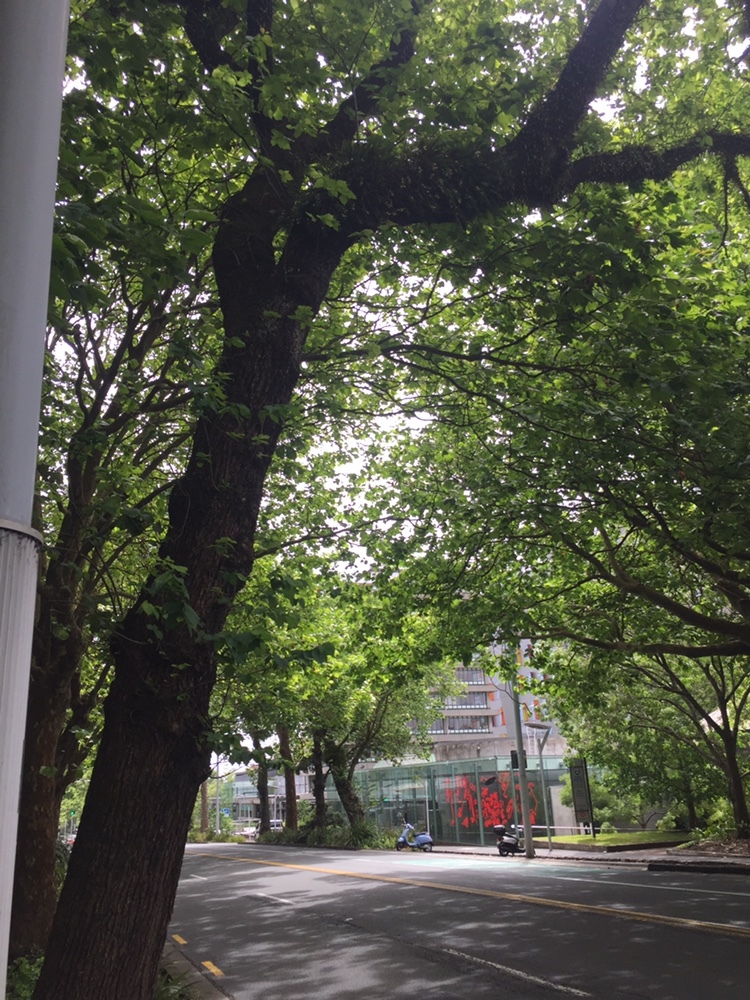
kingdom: Plantae
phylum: Tracheophyta
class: Liliopsida
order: Asparagales
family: Orchidaceae
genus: Earina
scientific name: Earina mucronata
